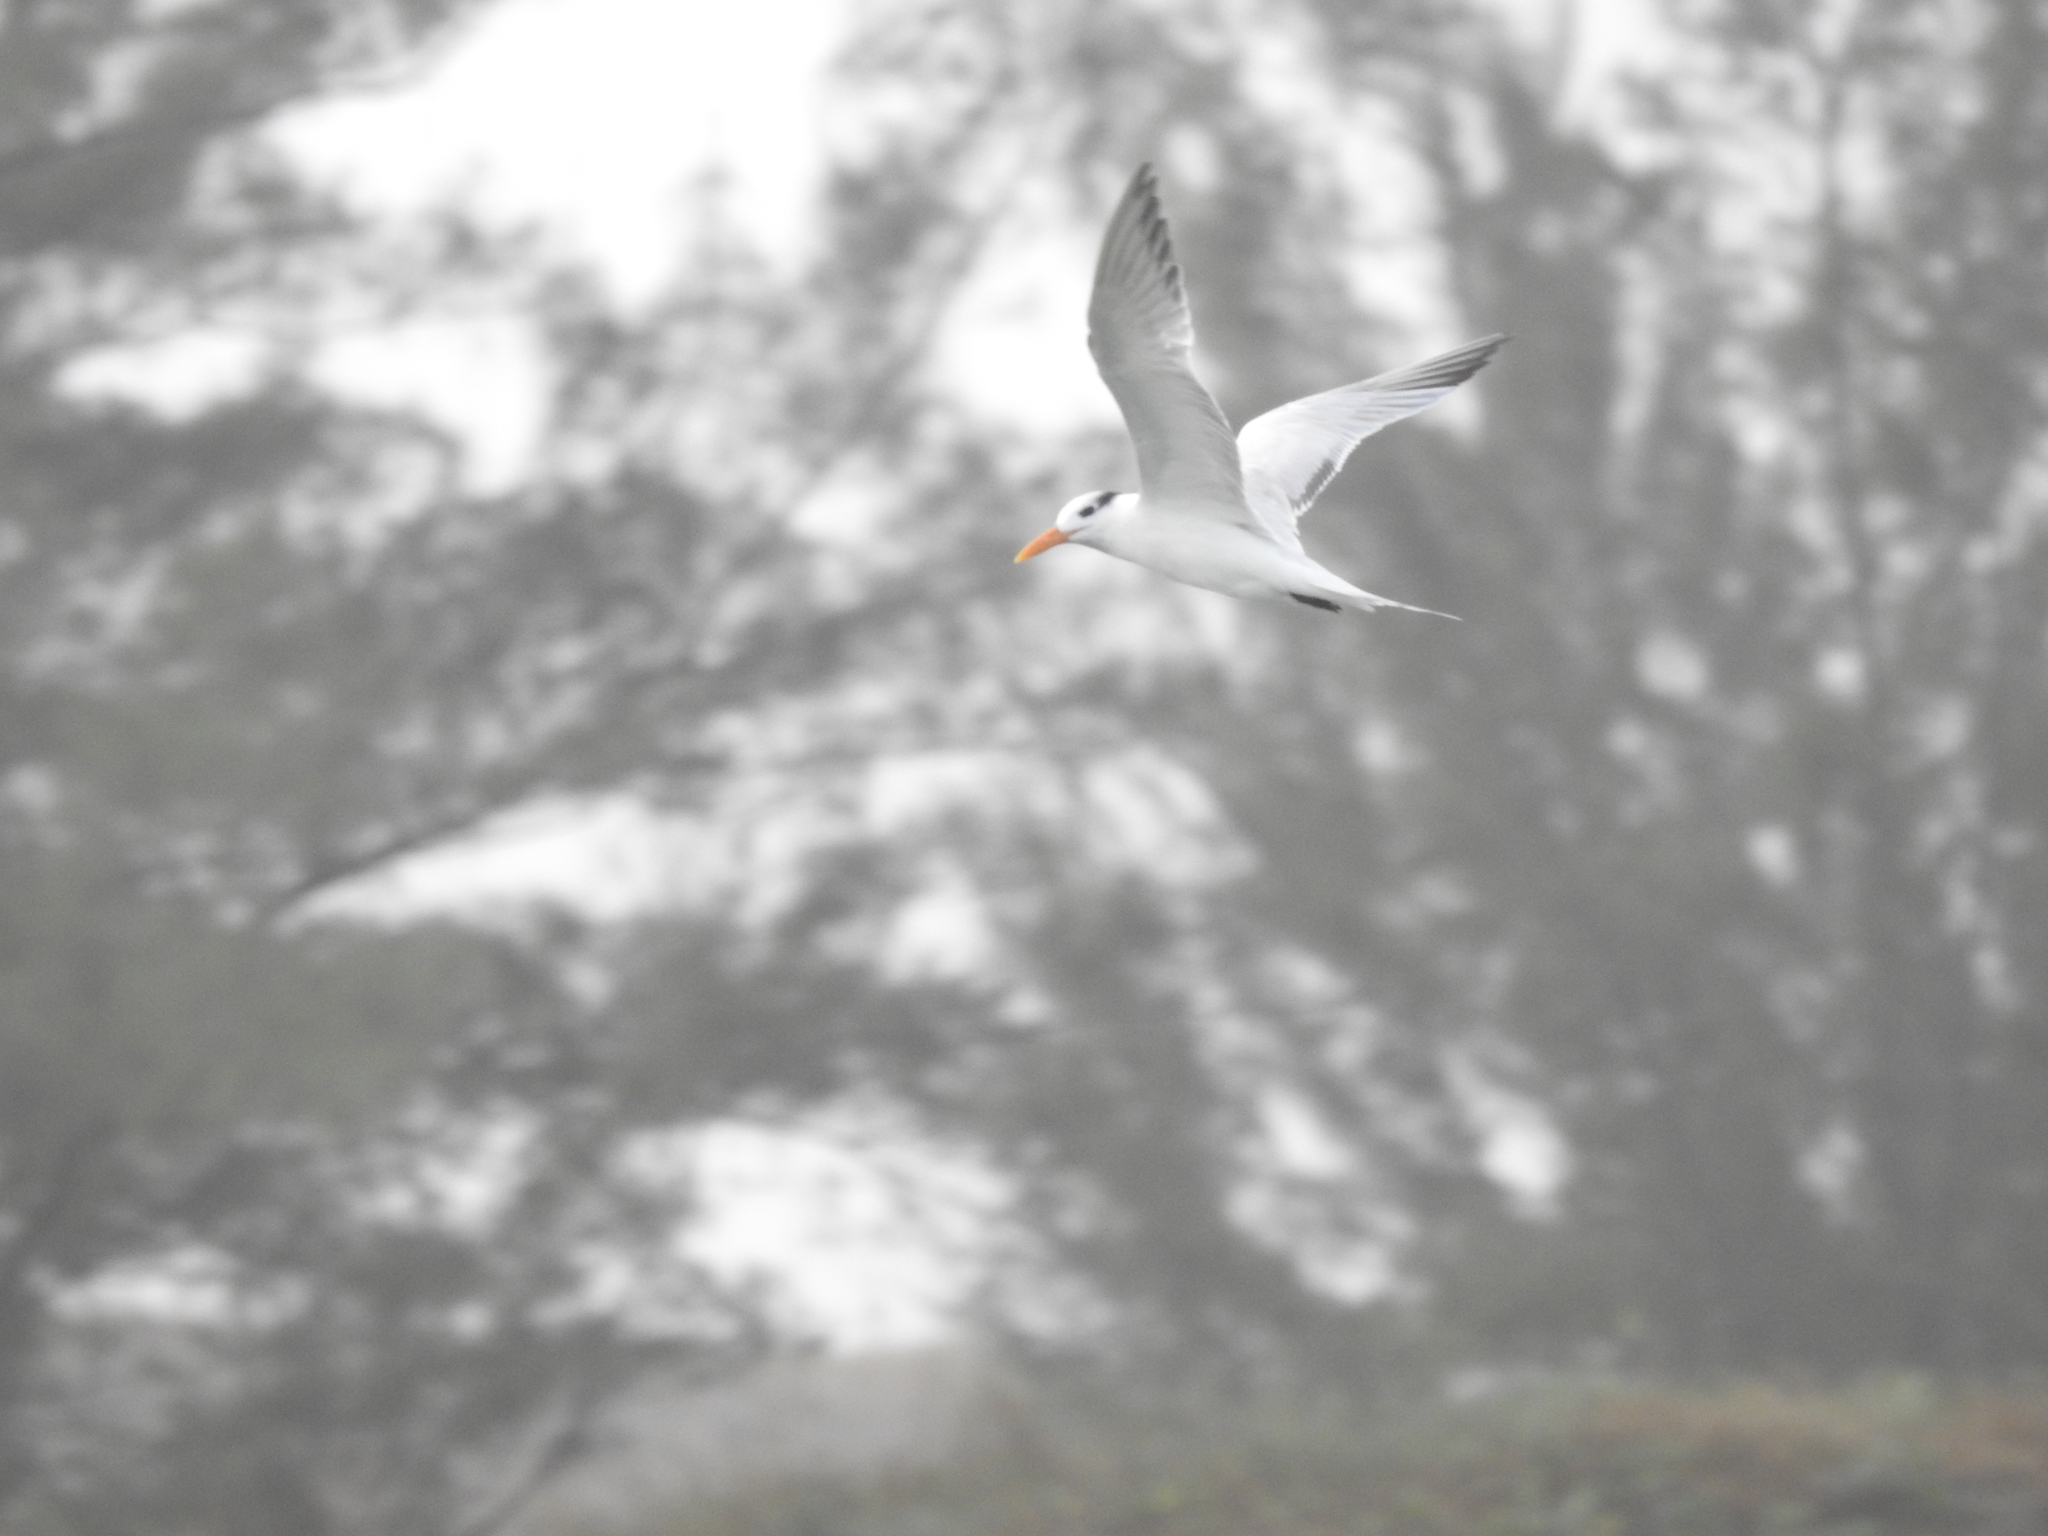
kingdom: Animalia
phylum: Chordata
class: Aves
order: Charadriiformes
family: Laridae
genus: Thalasseus
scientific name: Thalasseus maximus
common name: Royal tern
